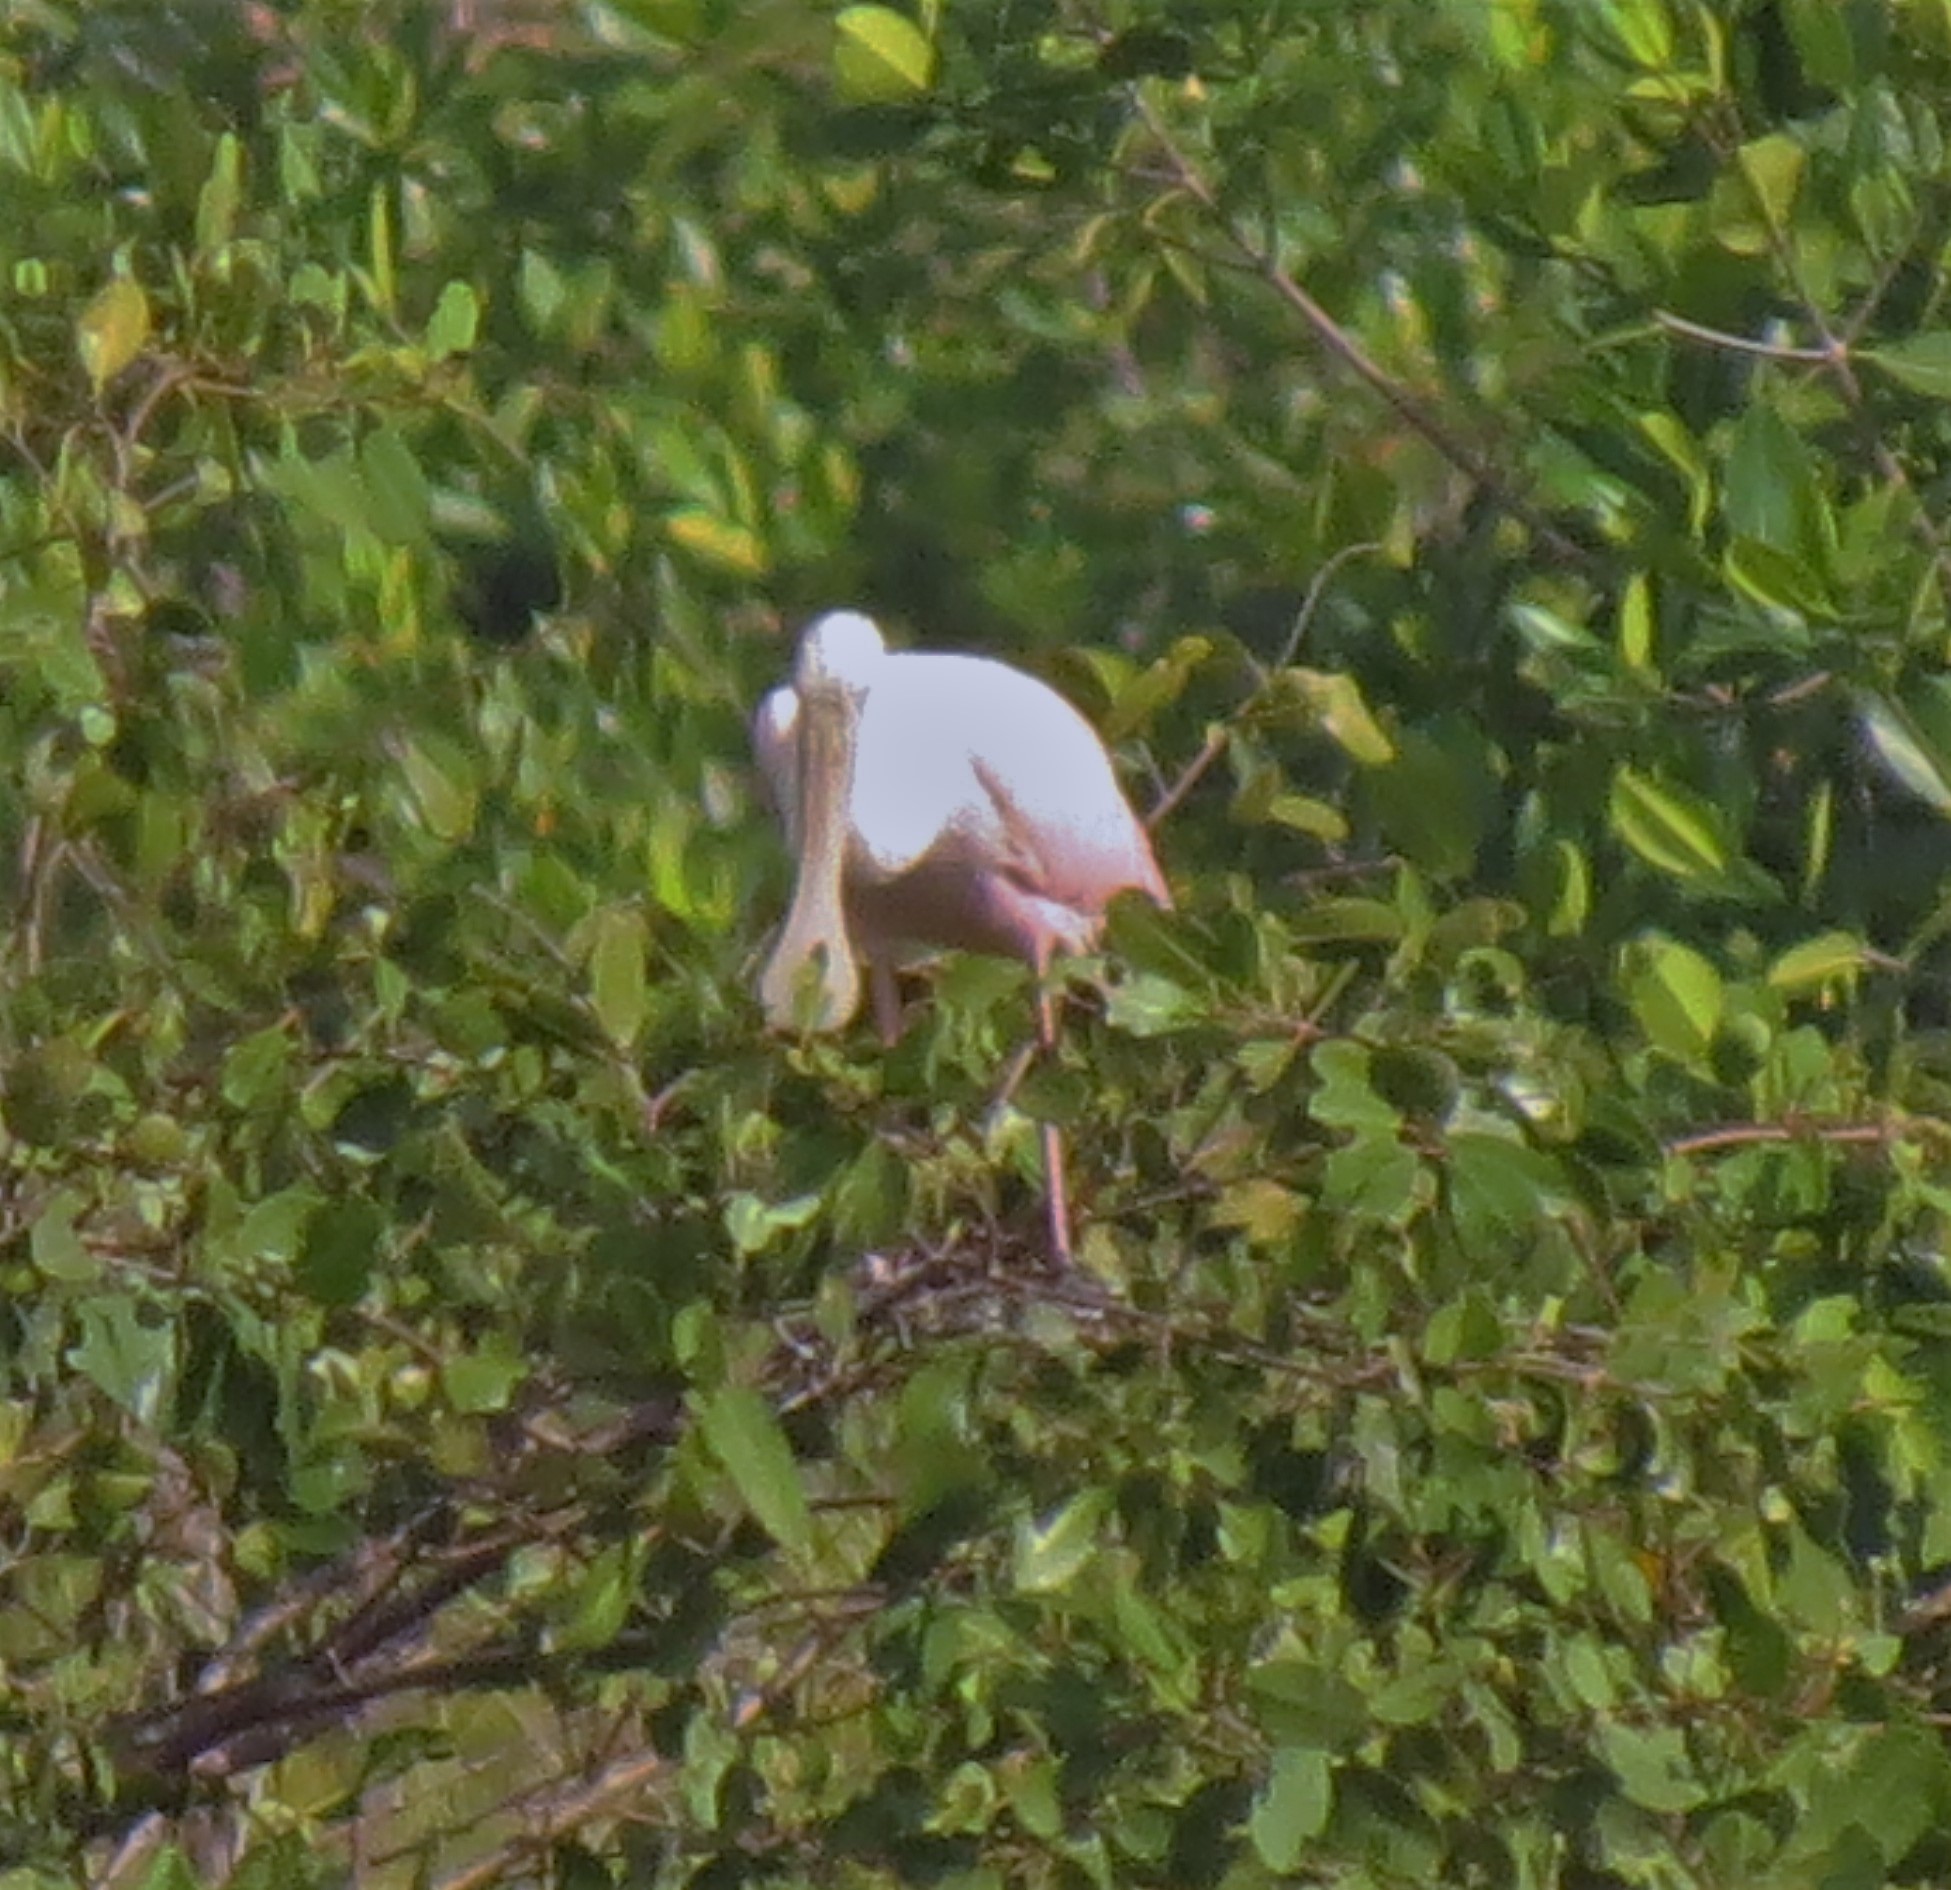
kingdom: Animalia
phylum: Chordata
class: Aves
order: Pelecaniformes
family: Threskiornithidae
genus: Platalea
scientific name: Platalea ajaja
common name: Roseate spoonbill
